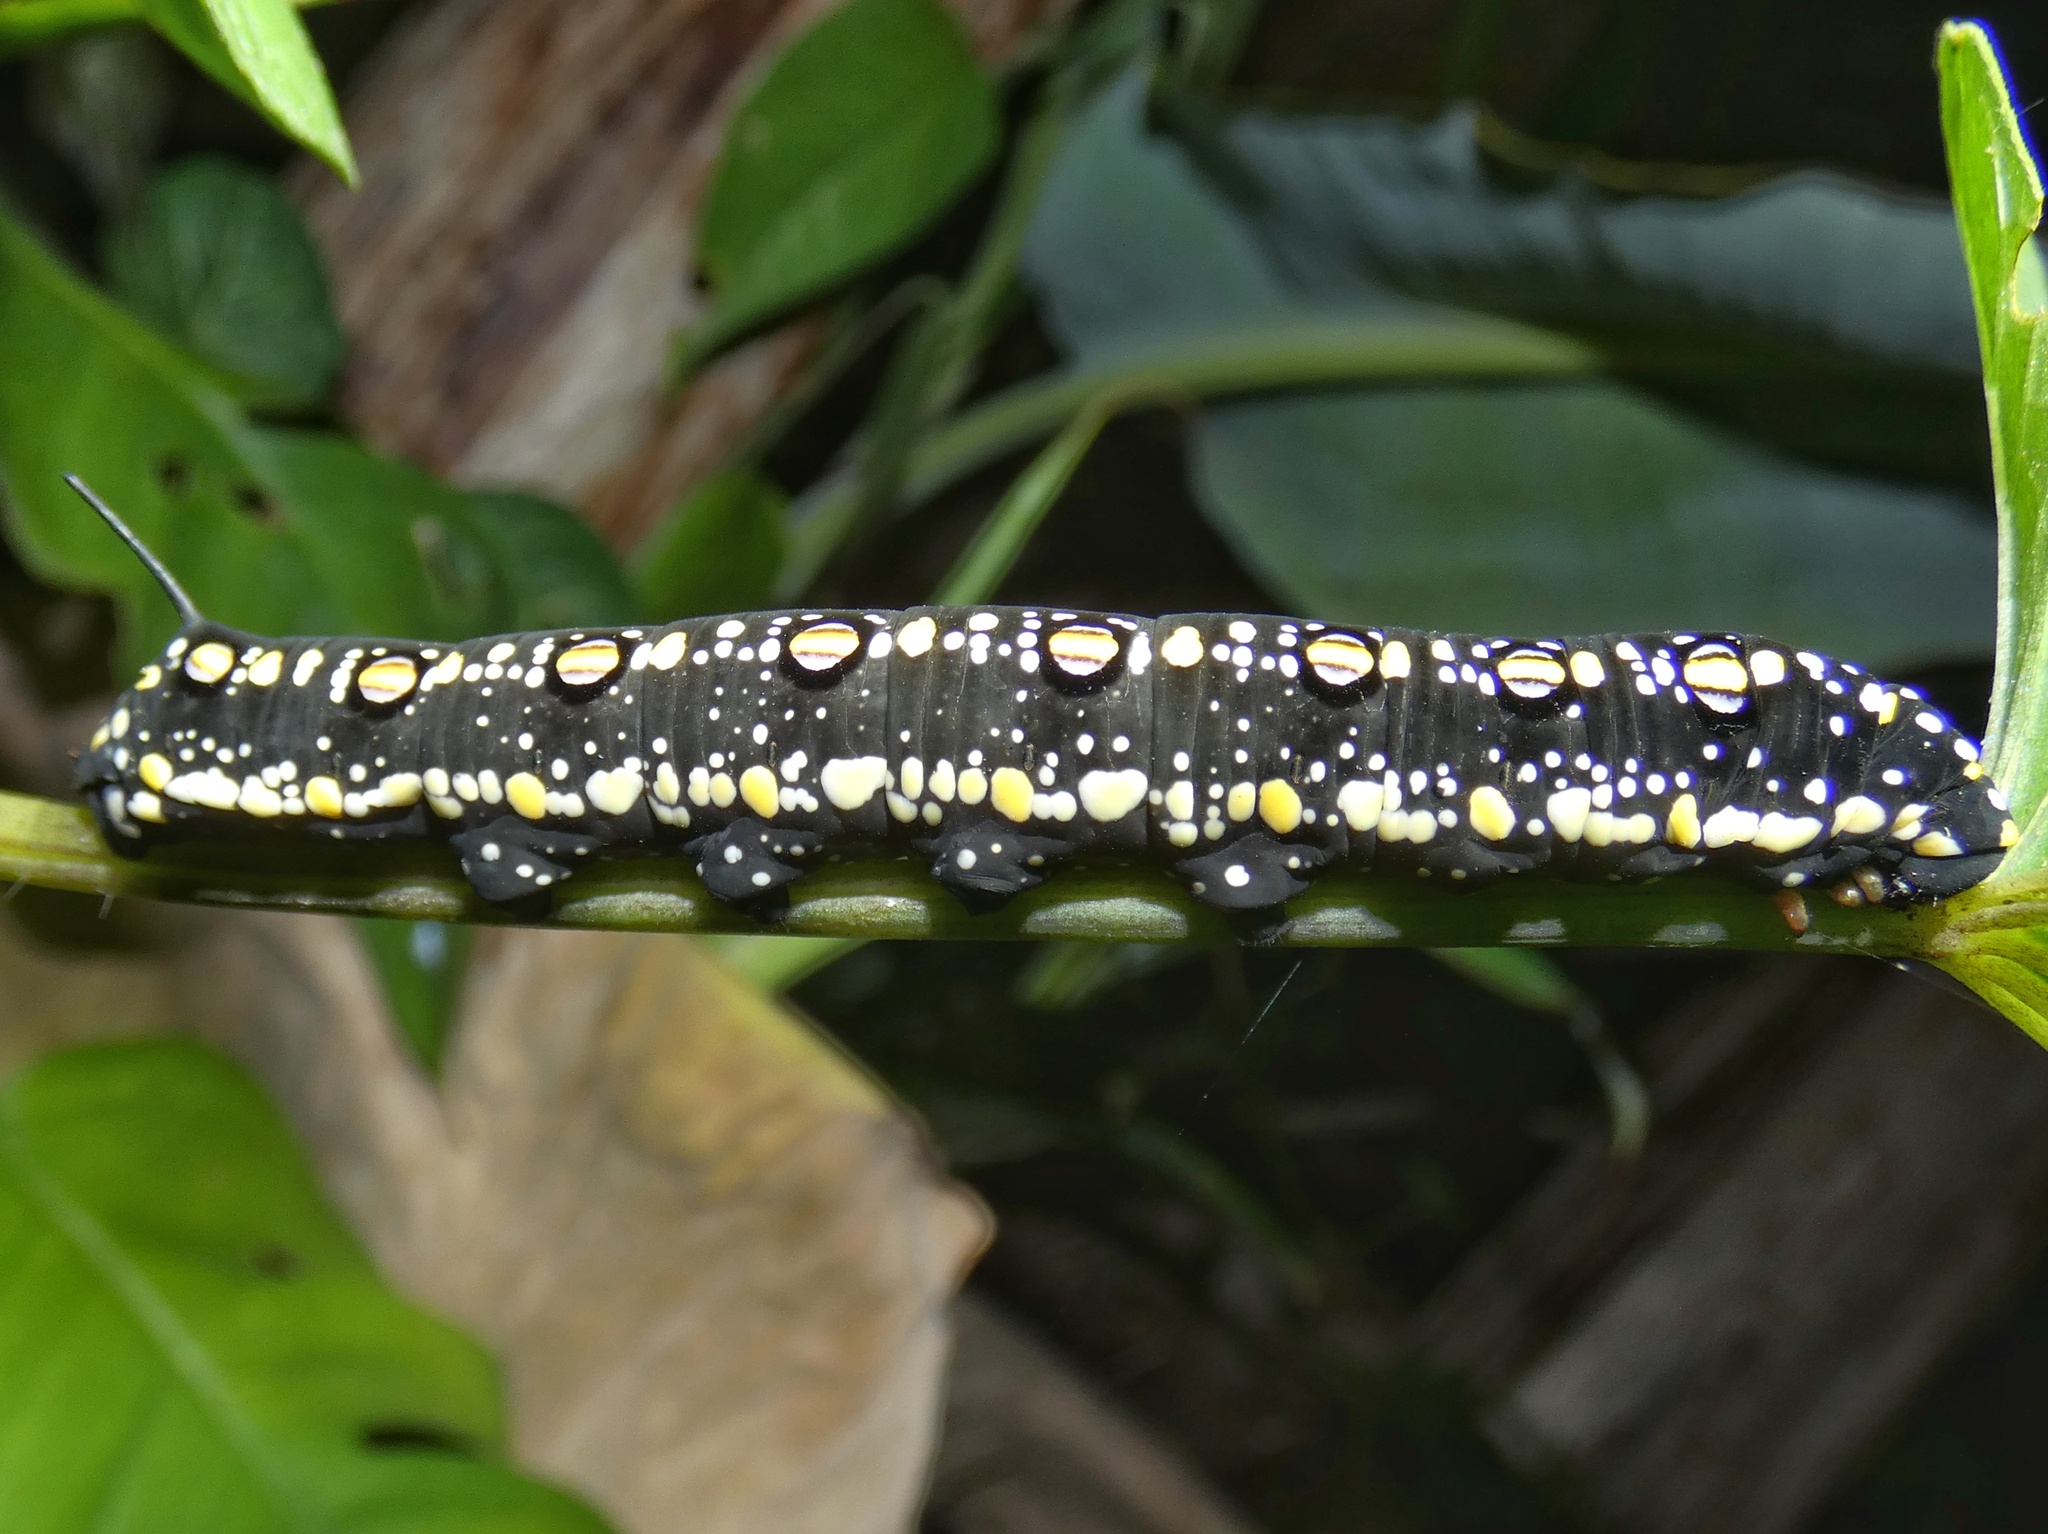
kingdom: Animalia
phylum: Arthropoda
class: Insecta
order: Lepidoptera
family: Sphingidae
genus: Theretra
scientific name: Theretra oldenlandiae
